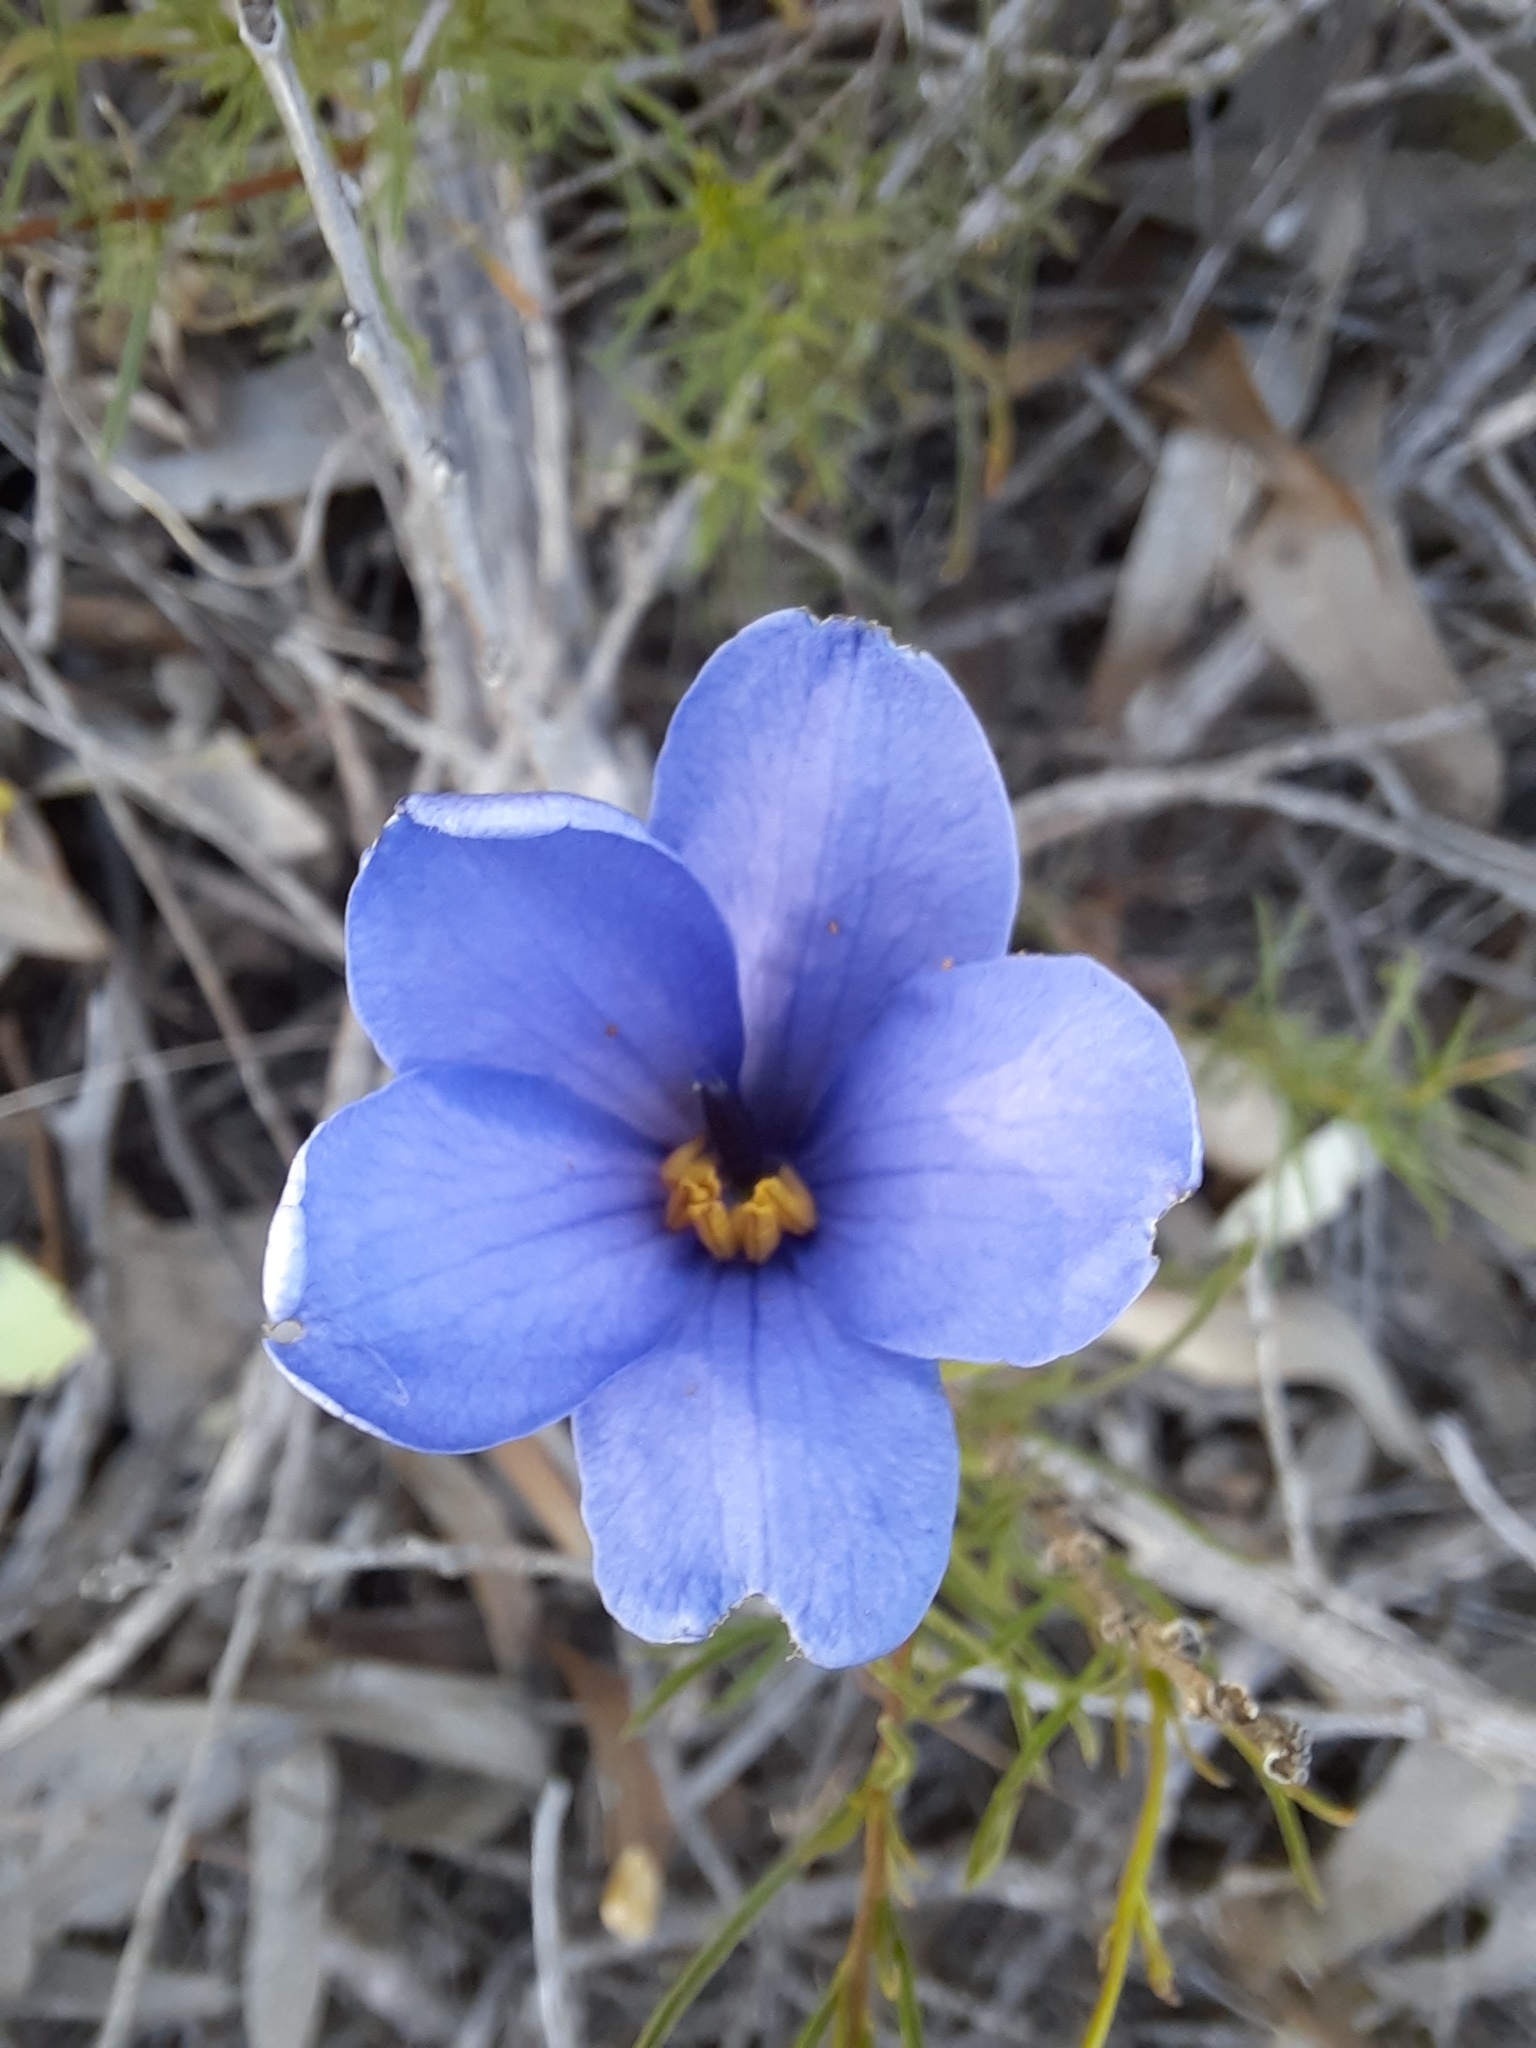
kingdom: Plantae
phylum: Tracheophyta
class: Magnoliopsida
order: Apiales
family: Pittosporaceae
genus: Cheiranthera
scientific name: Cheiranthera linearis
